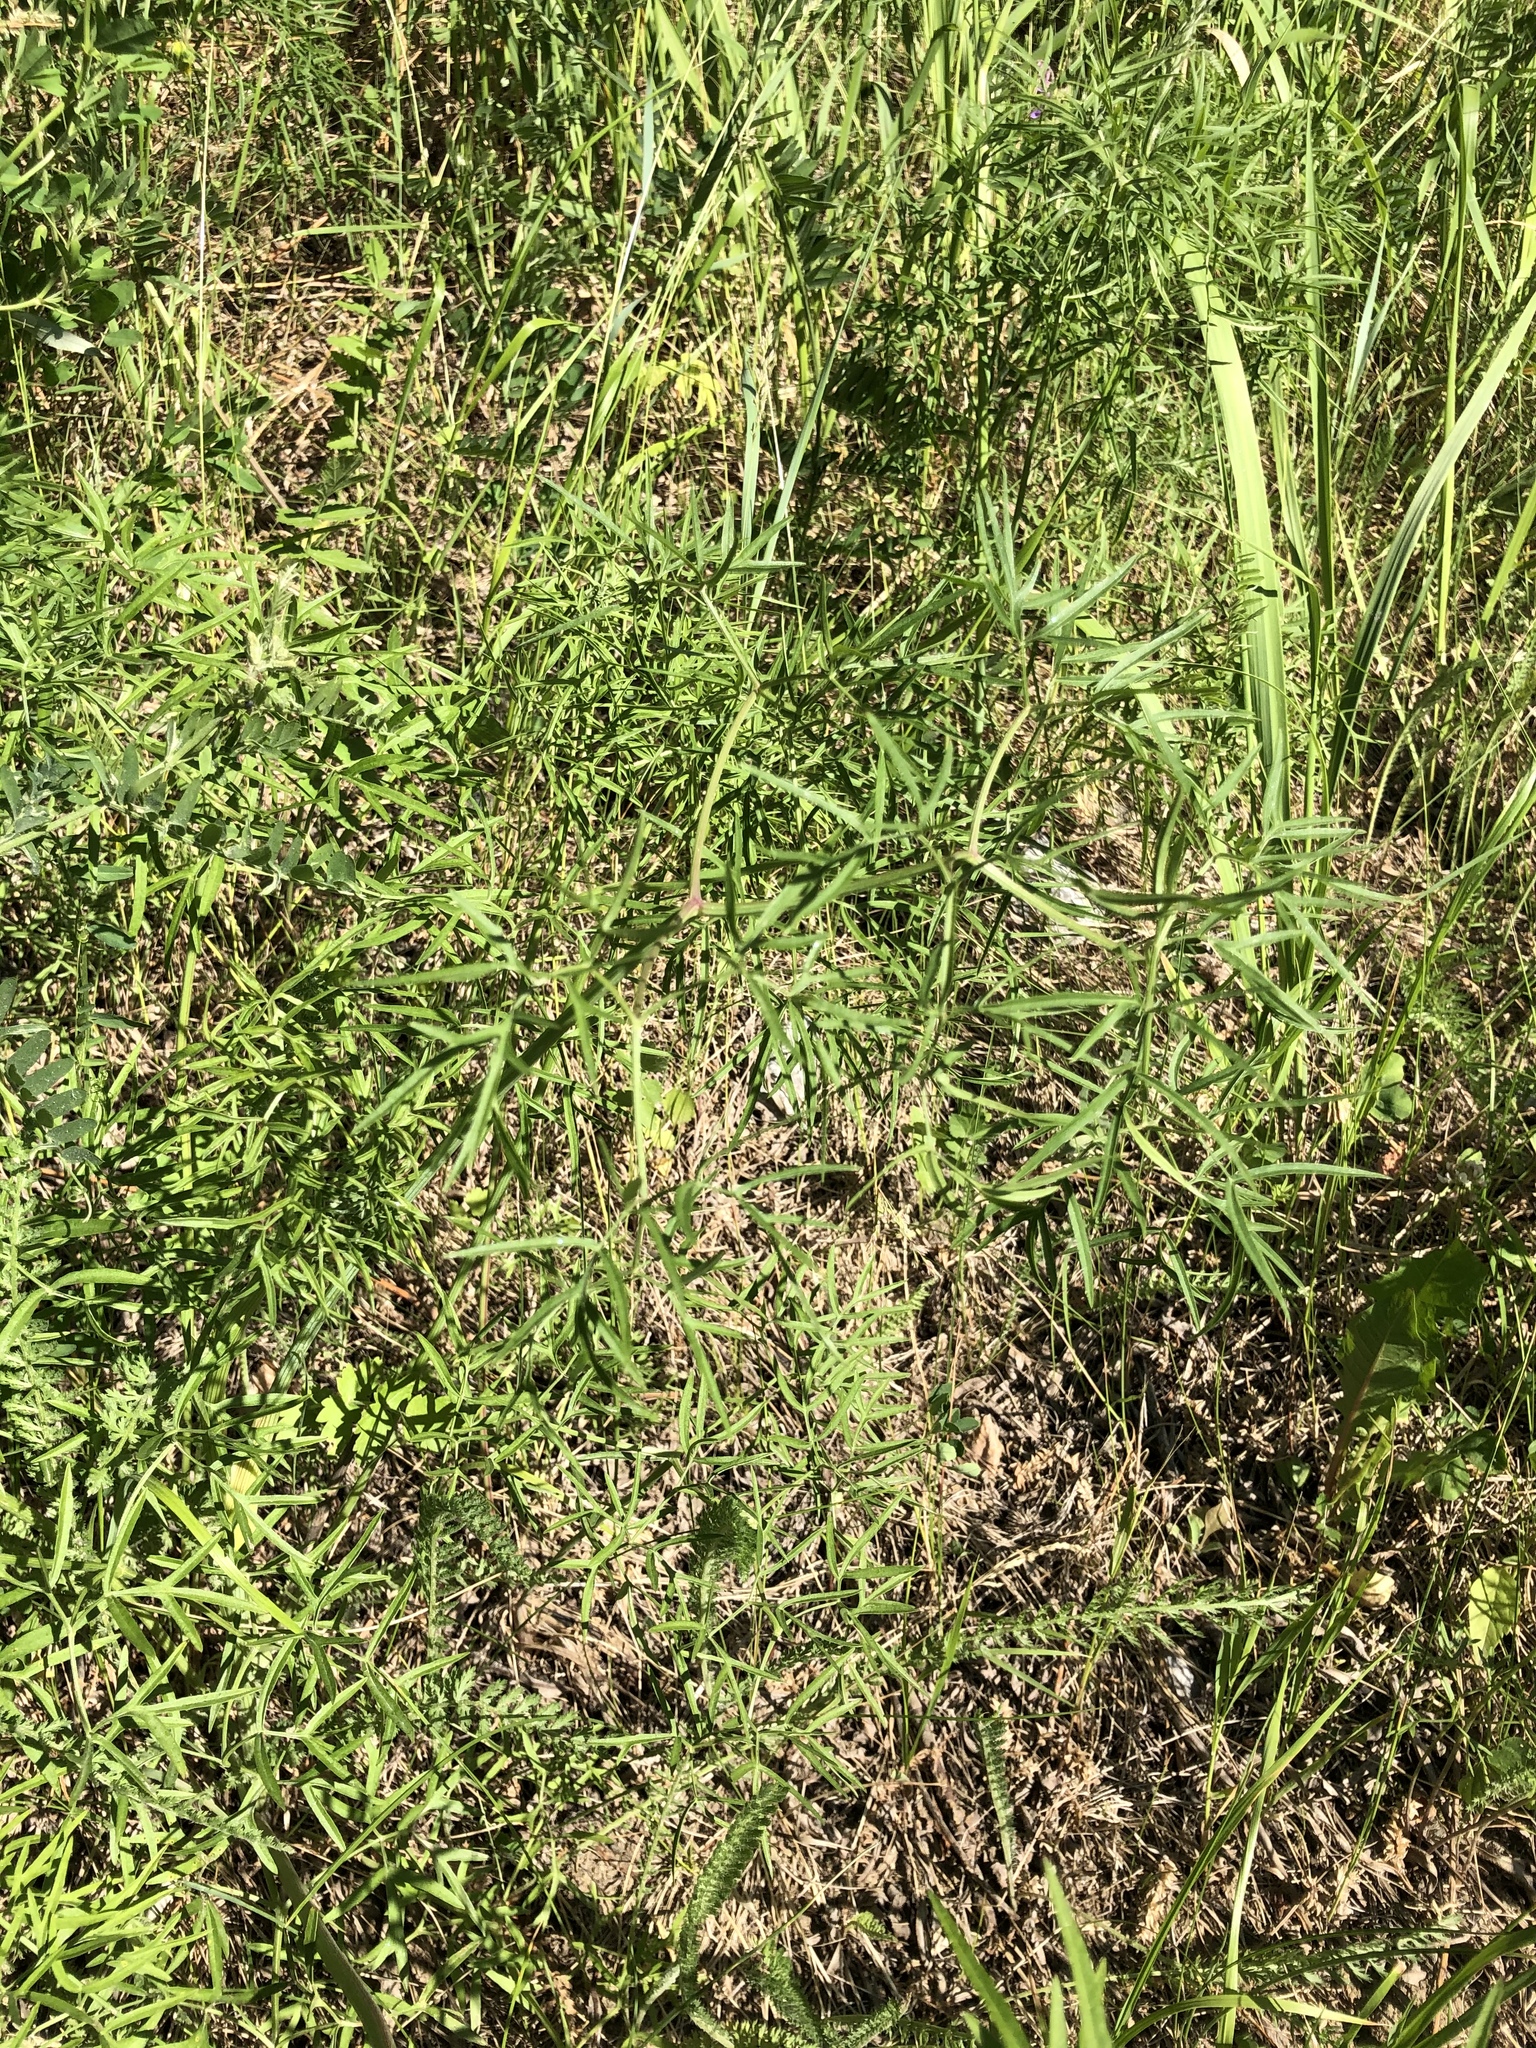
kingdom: Plantae
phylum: Tracheophyta
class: Magnoliopsida
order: Apiales
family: Apiaceae
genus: Cenolophium
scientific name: Cenolophium fischeri
